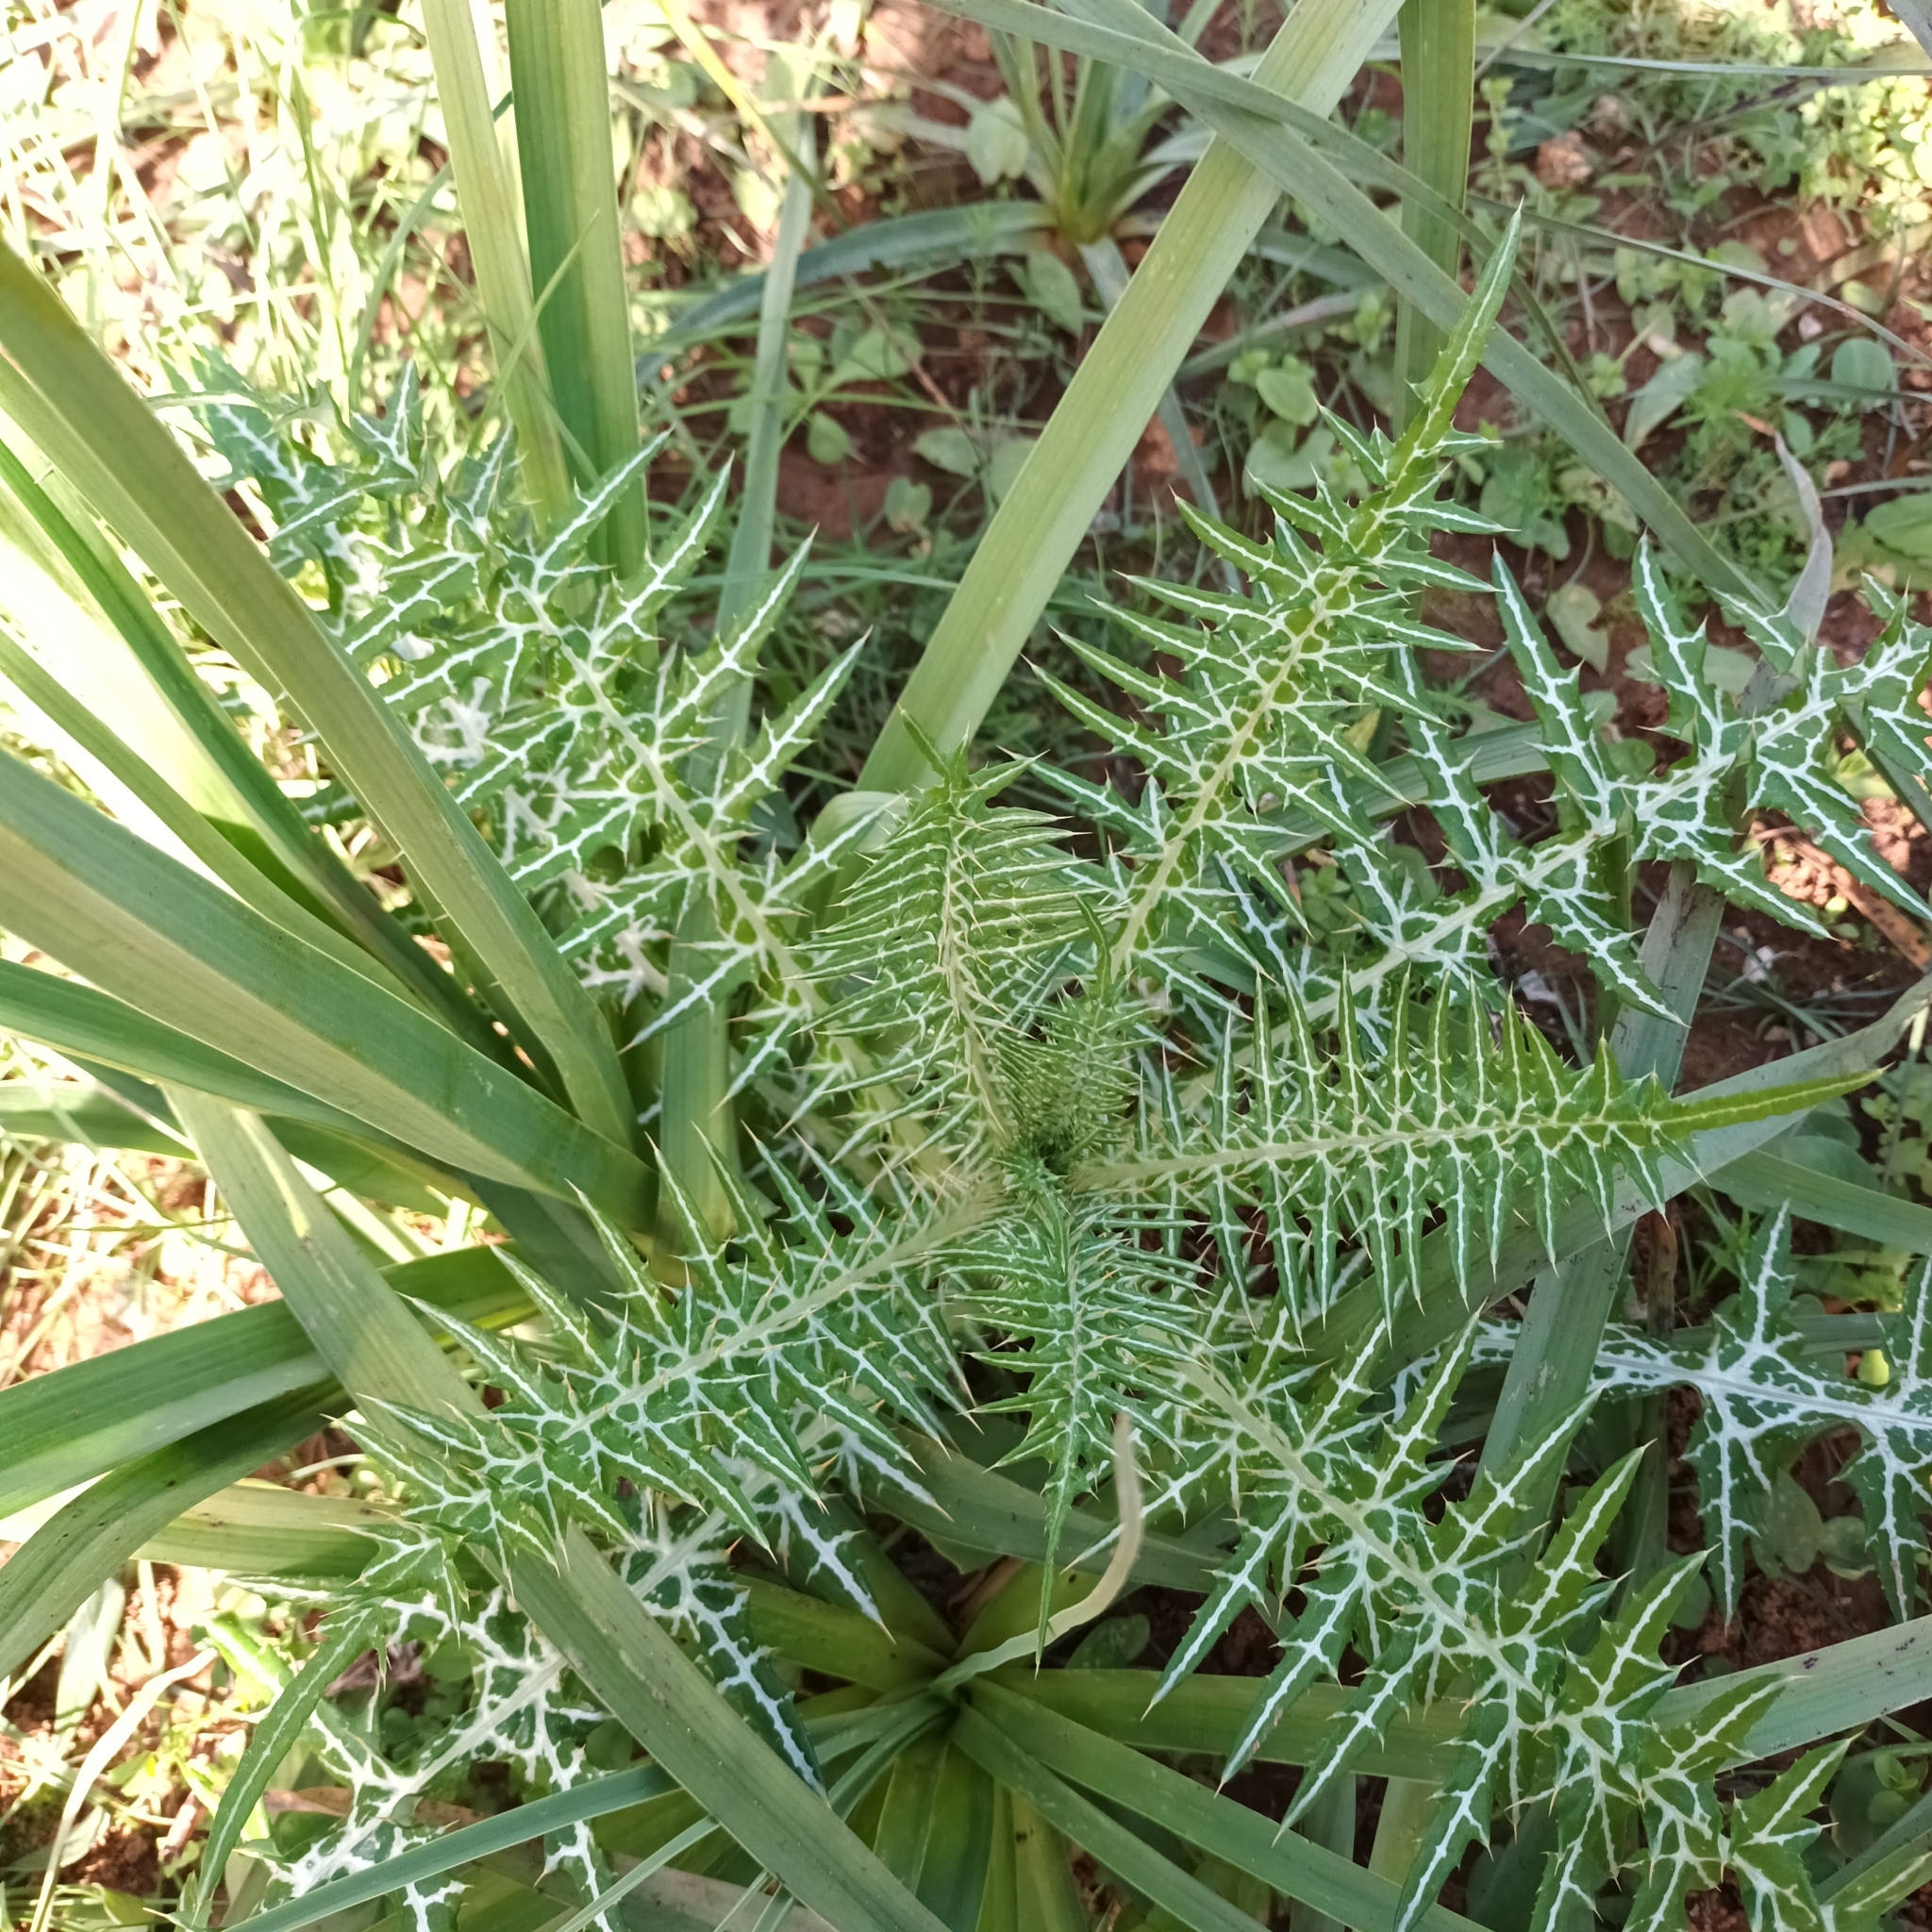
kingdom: Plantae
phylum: Tracheophyta
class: Magnoliopsida
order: Asterales
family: Asteraceae
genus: Galactites
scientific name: Galactites tomentosa
